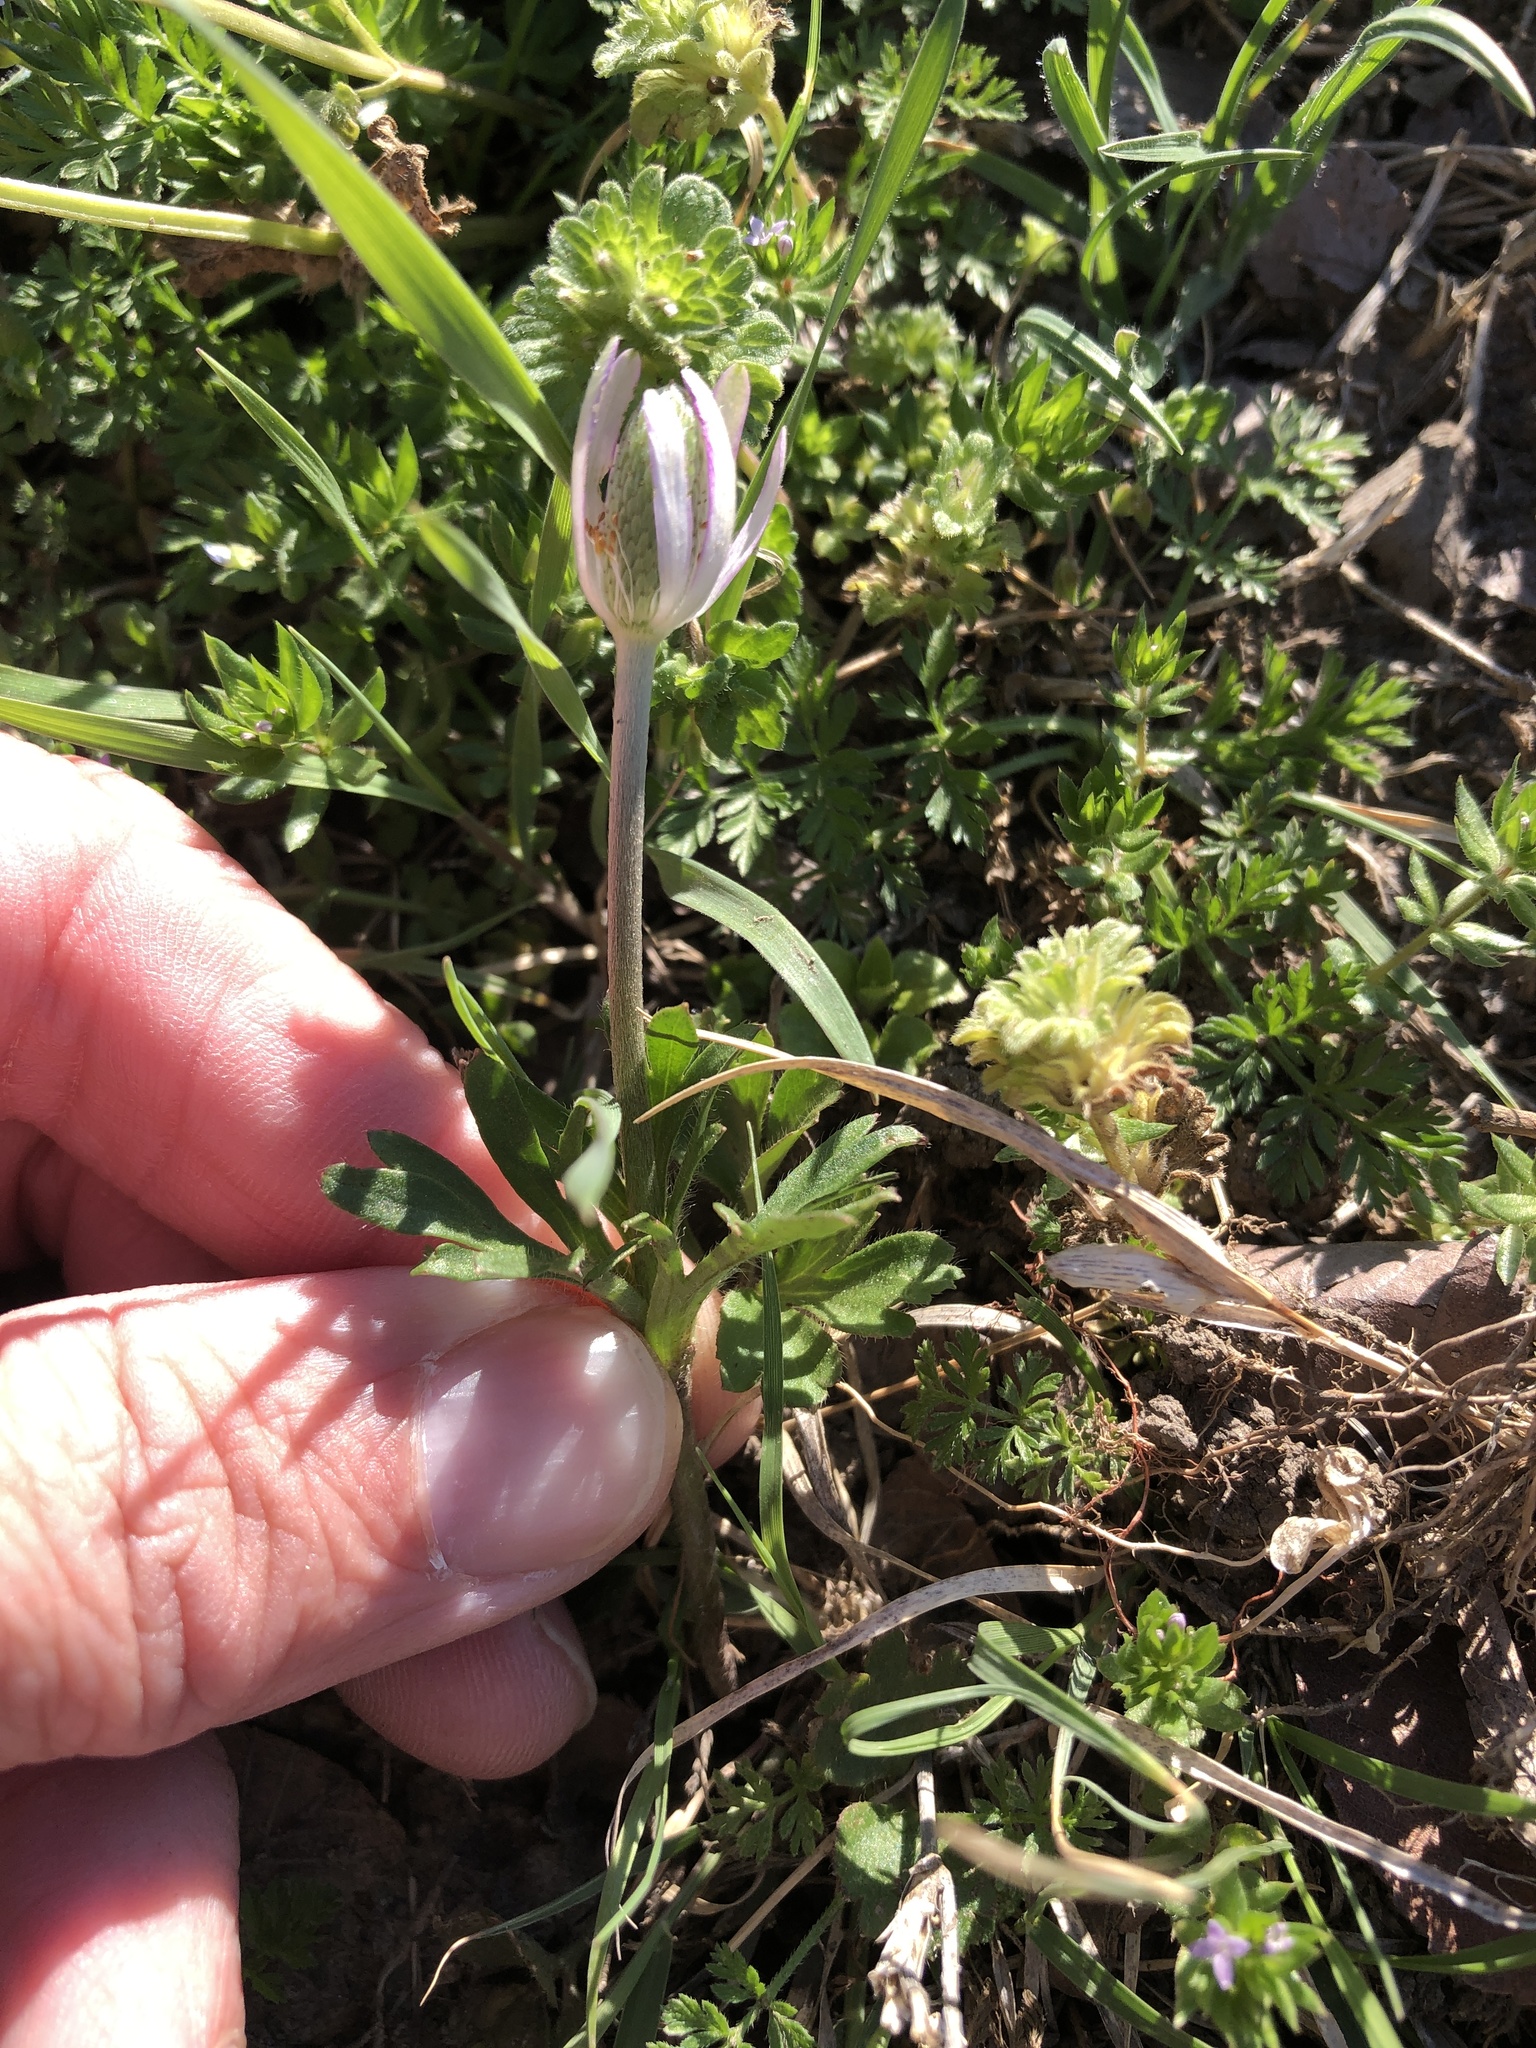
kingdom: Plantae
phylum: Tracheophyta
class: Magnoliopsida
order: Ranunculales
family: Ranunculaceae
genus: Anemone
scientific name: Anemone berlandieri
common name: Ten-petal anemone
